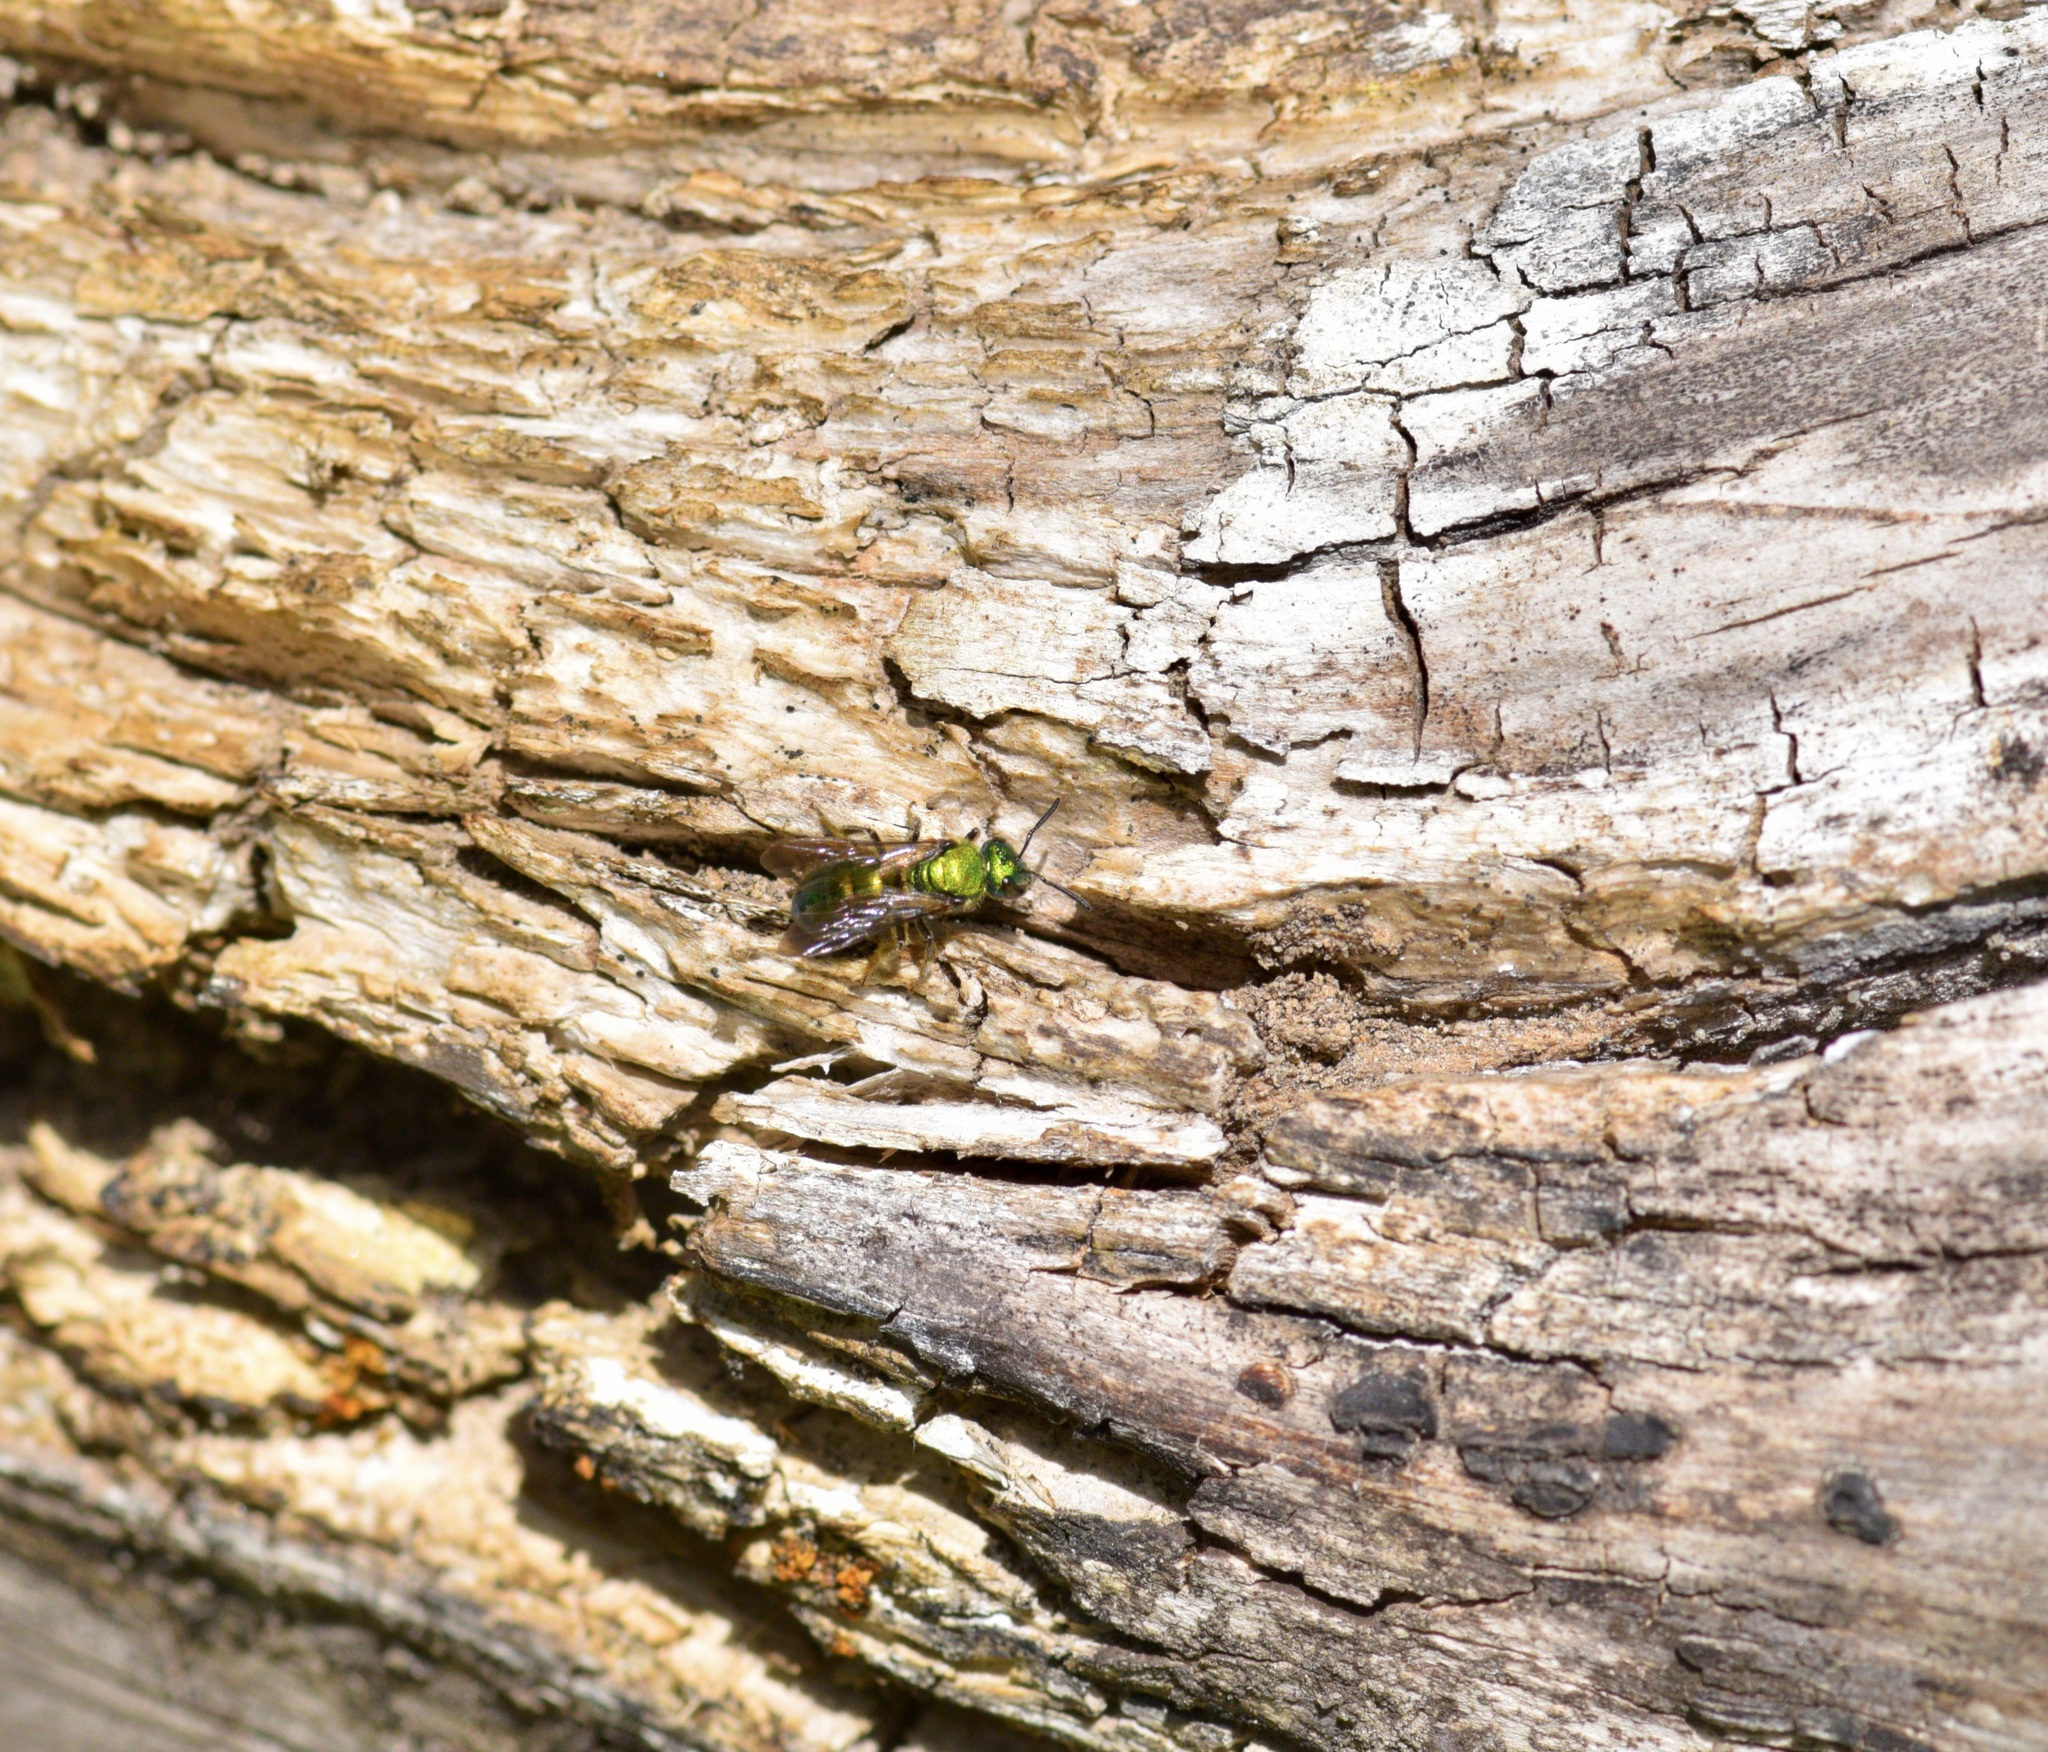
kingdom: Animalia
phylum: Arthropoda
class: Insecta
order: Hymenoptera
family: Halictidae
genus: Augochlora
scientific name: Augochlora pura
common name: Pure green sweat bee
